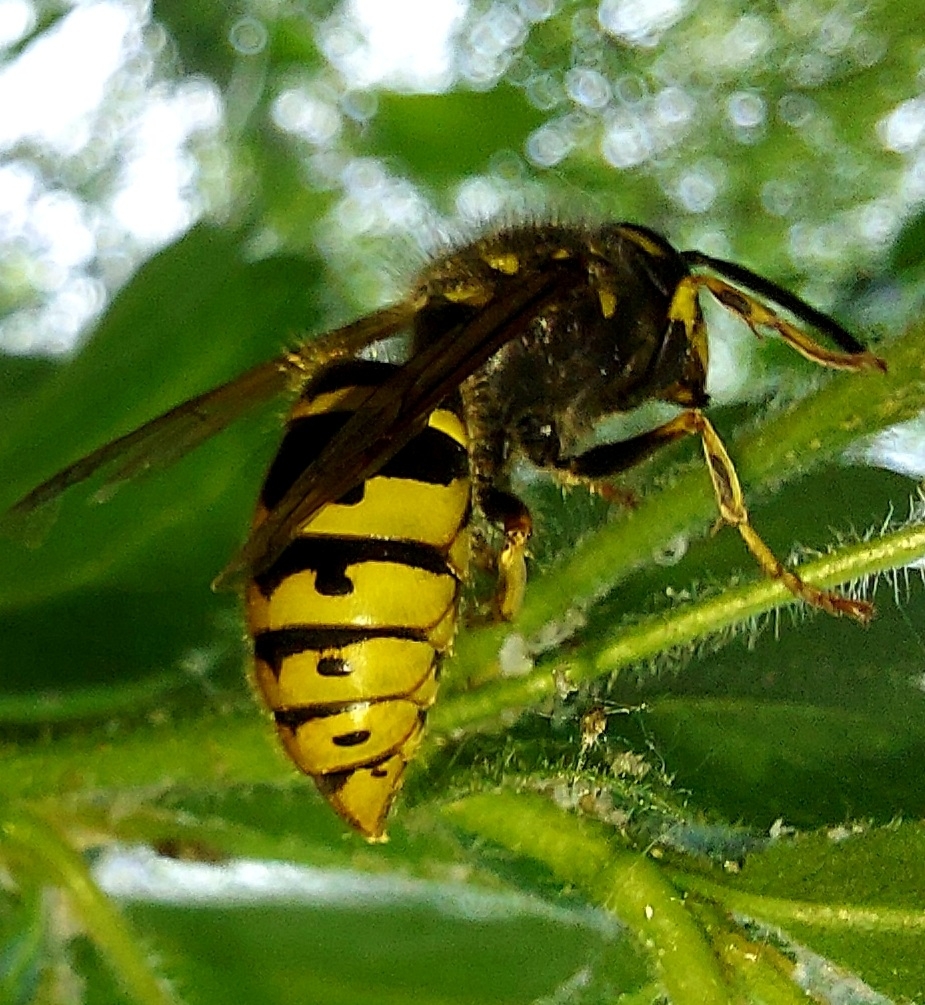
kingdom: Animalia
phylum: Arthropoda
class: Insecta
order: Hymenoptera
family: Vespidae
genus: Vespula
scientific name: Vespula vulgaris
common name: Common wasp
